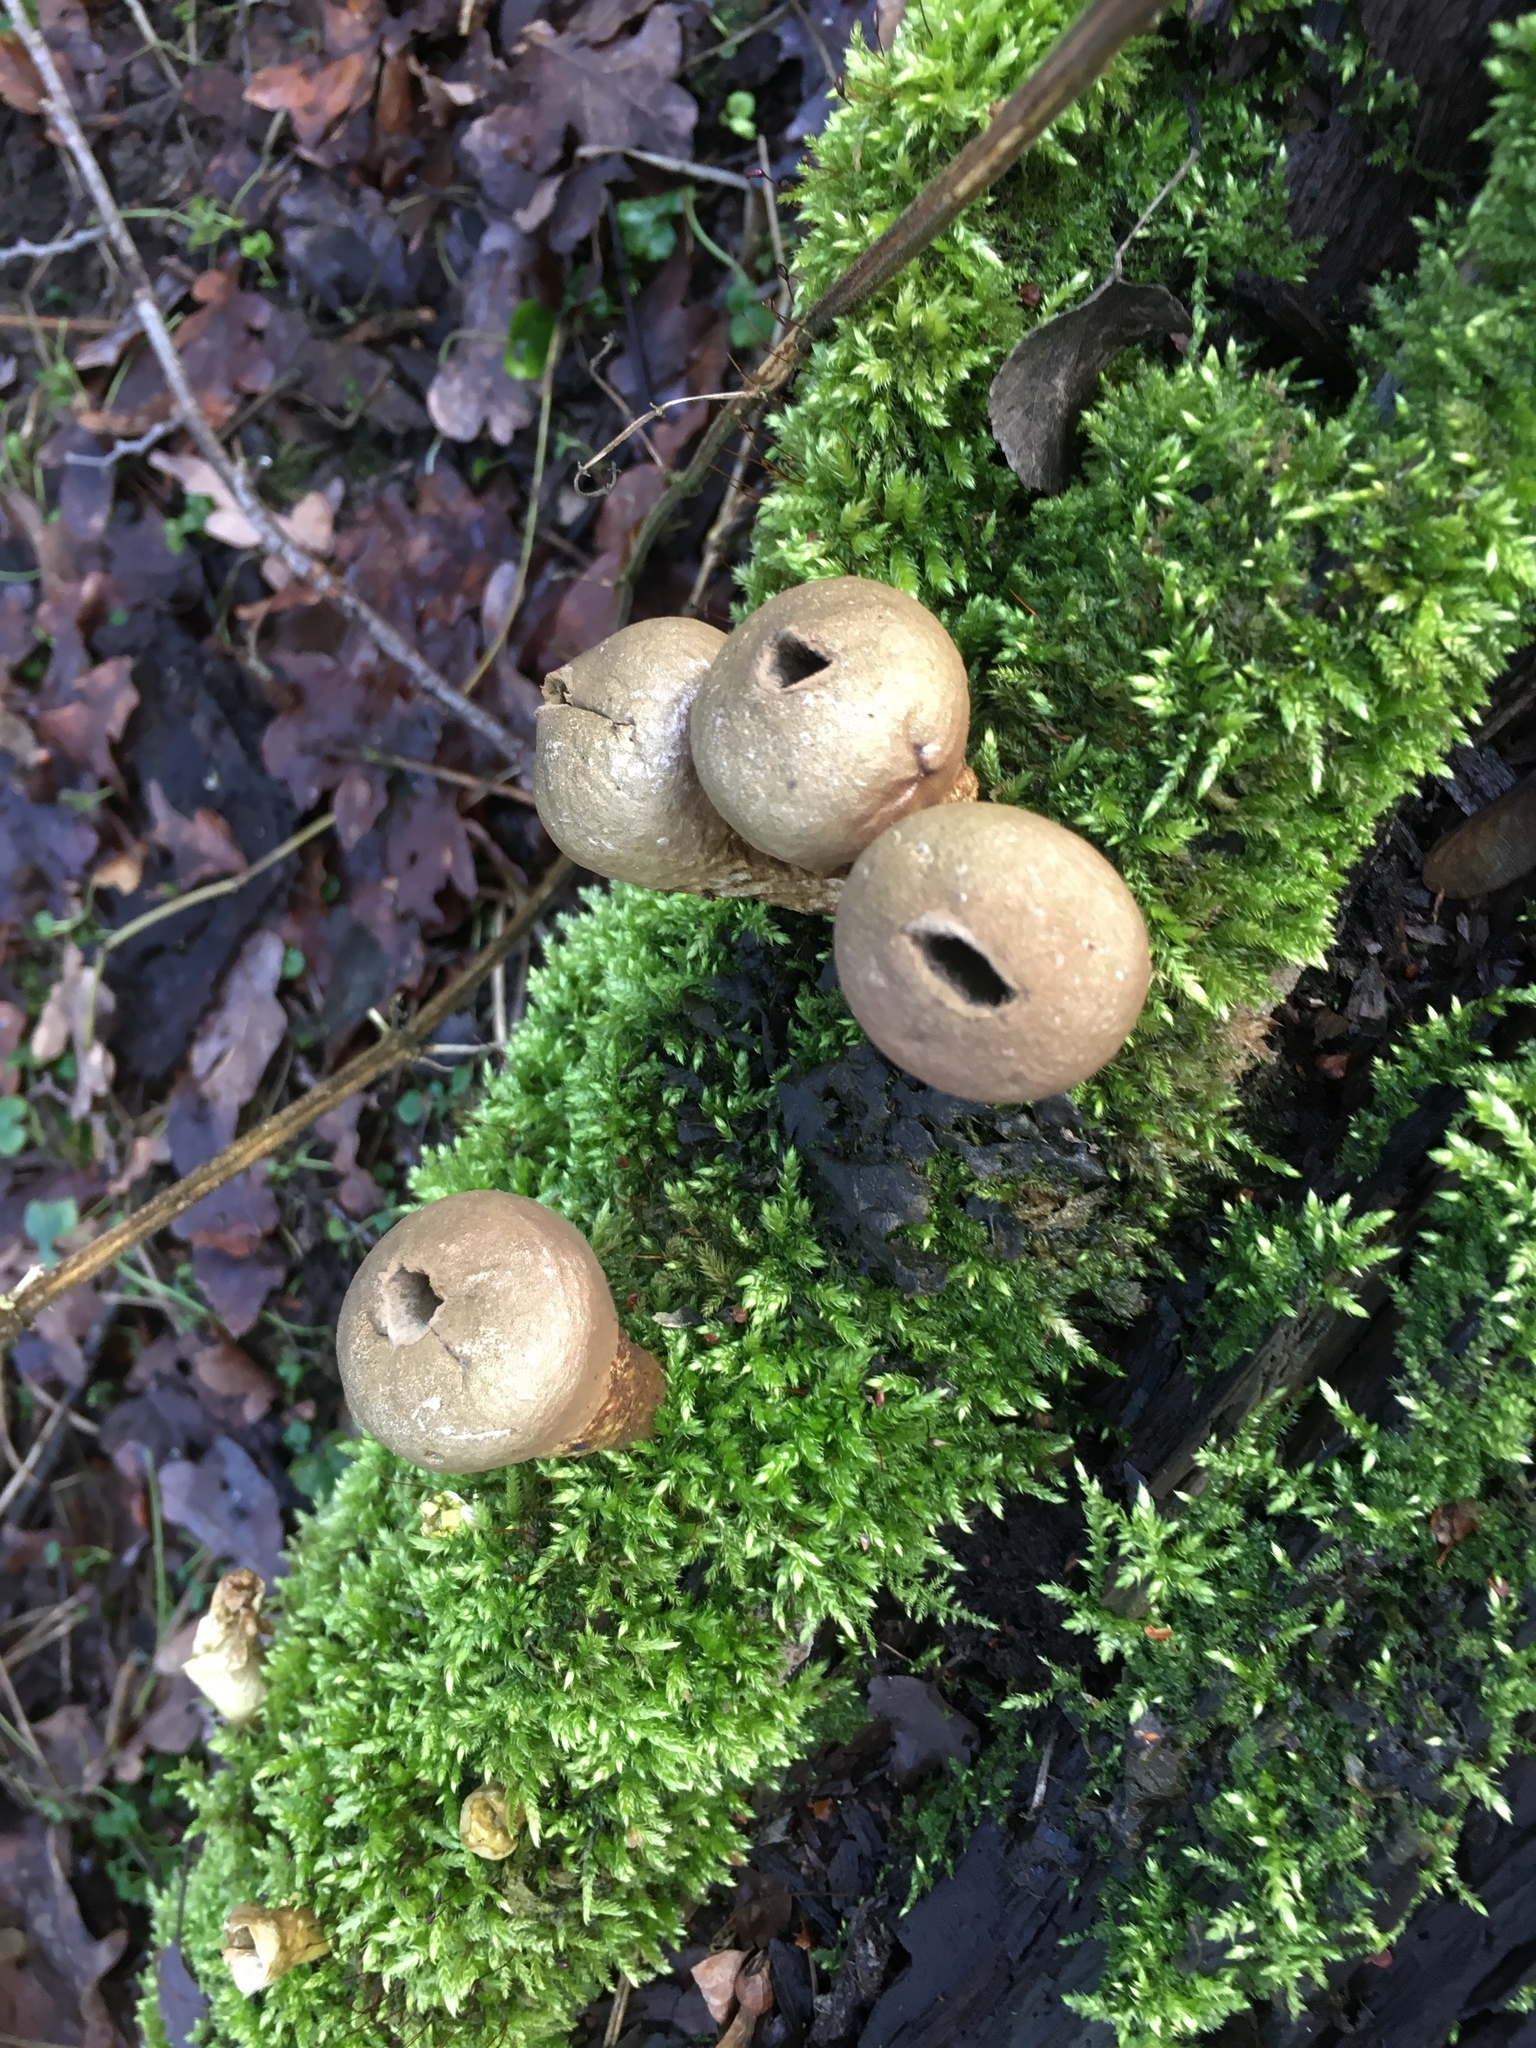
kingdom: Fungi
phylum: Basidiomycota
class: Agaricomycetes
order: Agaricales
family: Lycoperdaceae
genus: Apioperdon
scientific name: Apioperdon pyriforme
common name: Pear-shaped puffball
